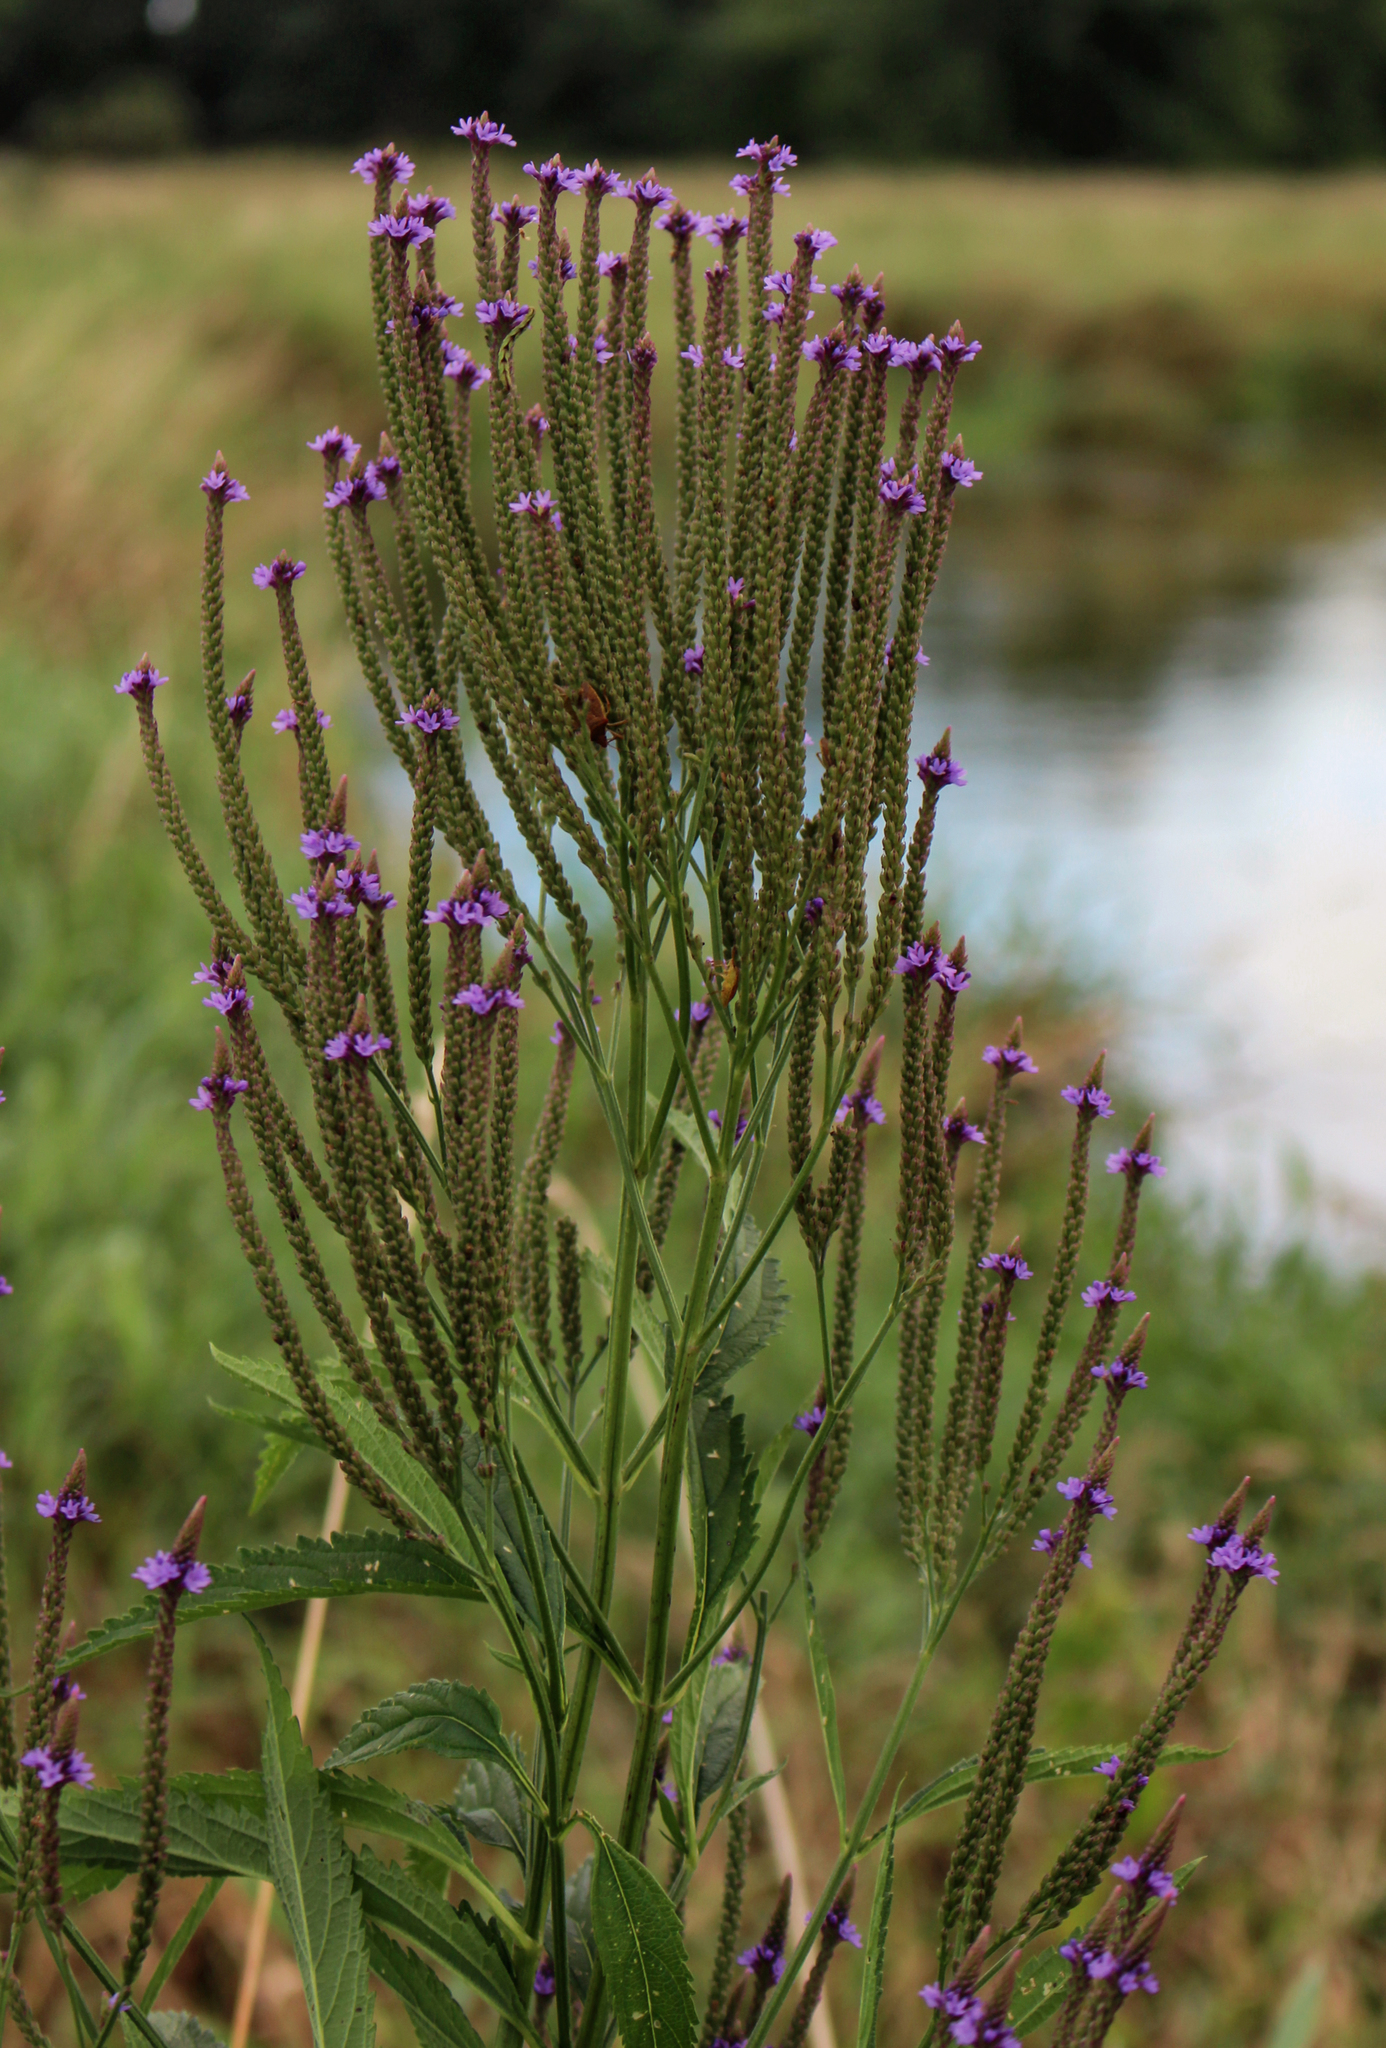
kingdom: Plantae
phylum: Tracheophyta
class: Magnoliopsida
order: Lamiales
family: Verbenaceae
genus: Verbena
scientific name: Verbena hastata
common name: American blue vervain
